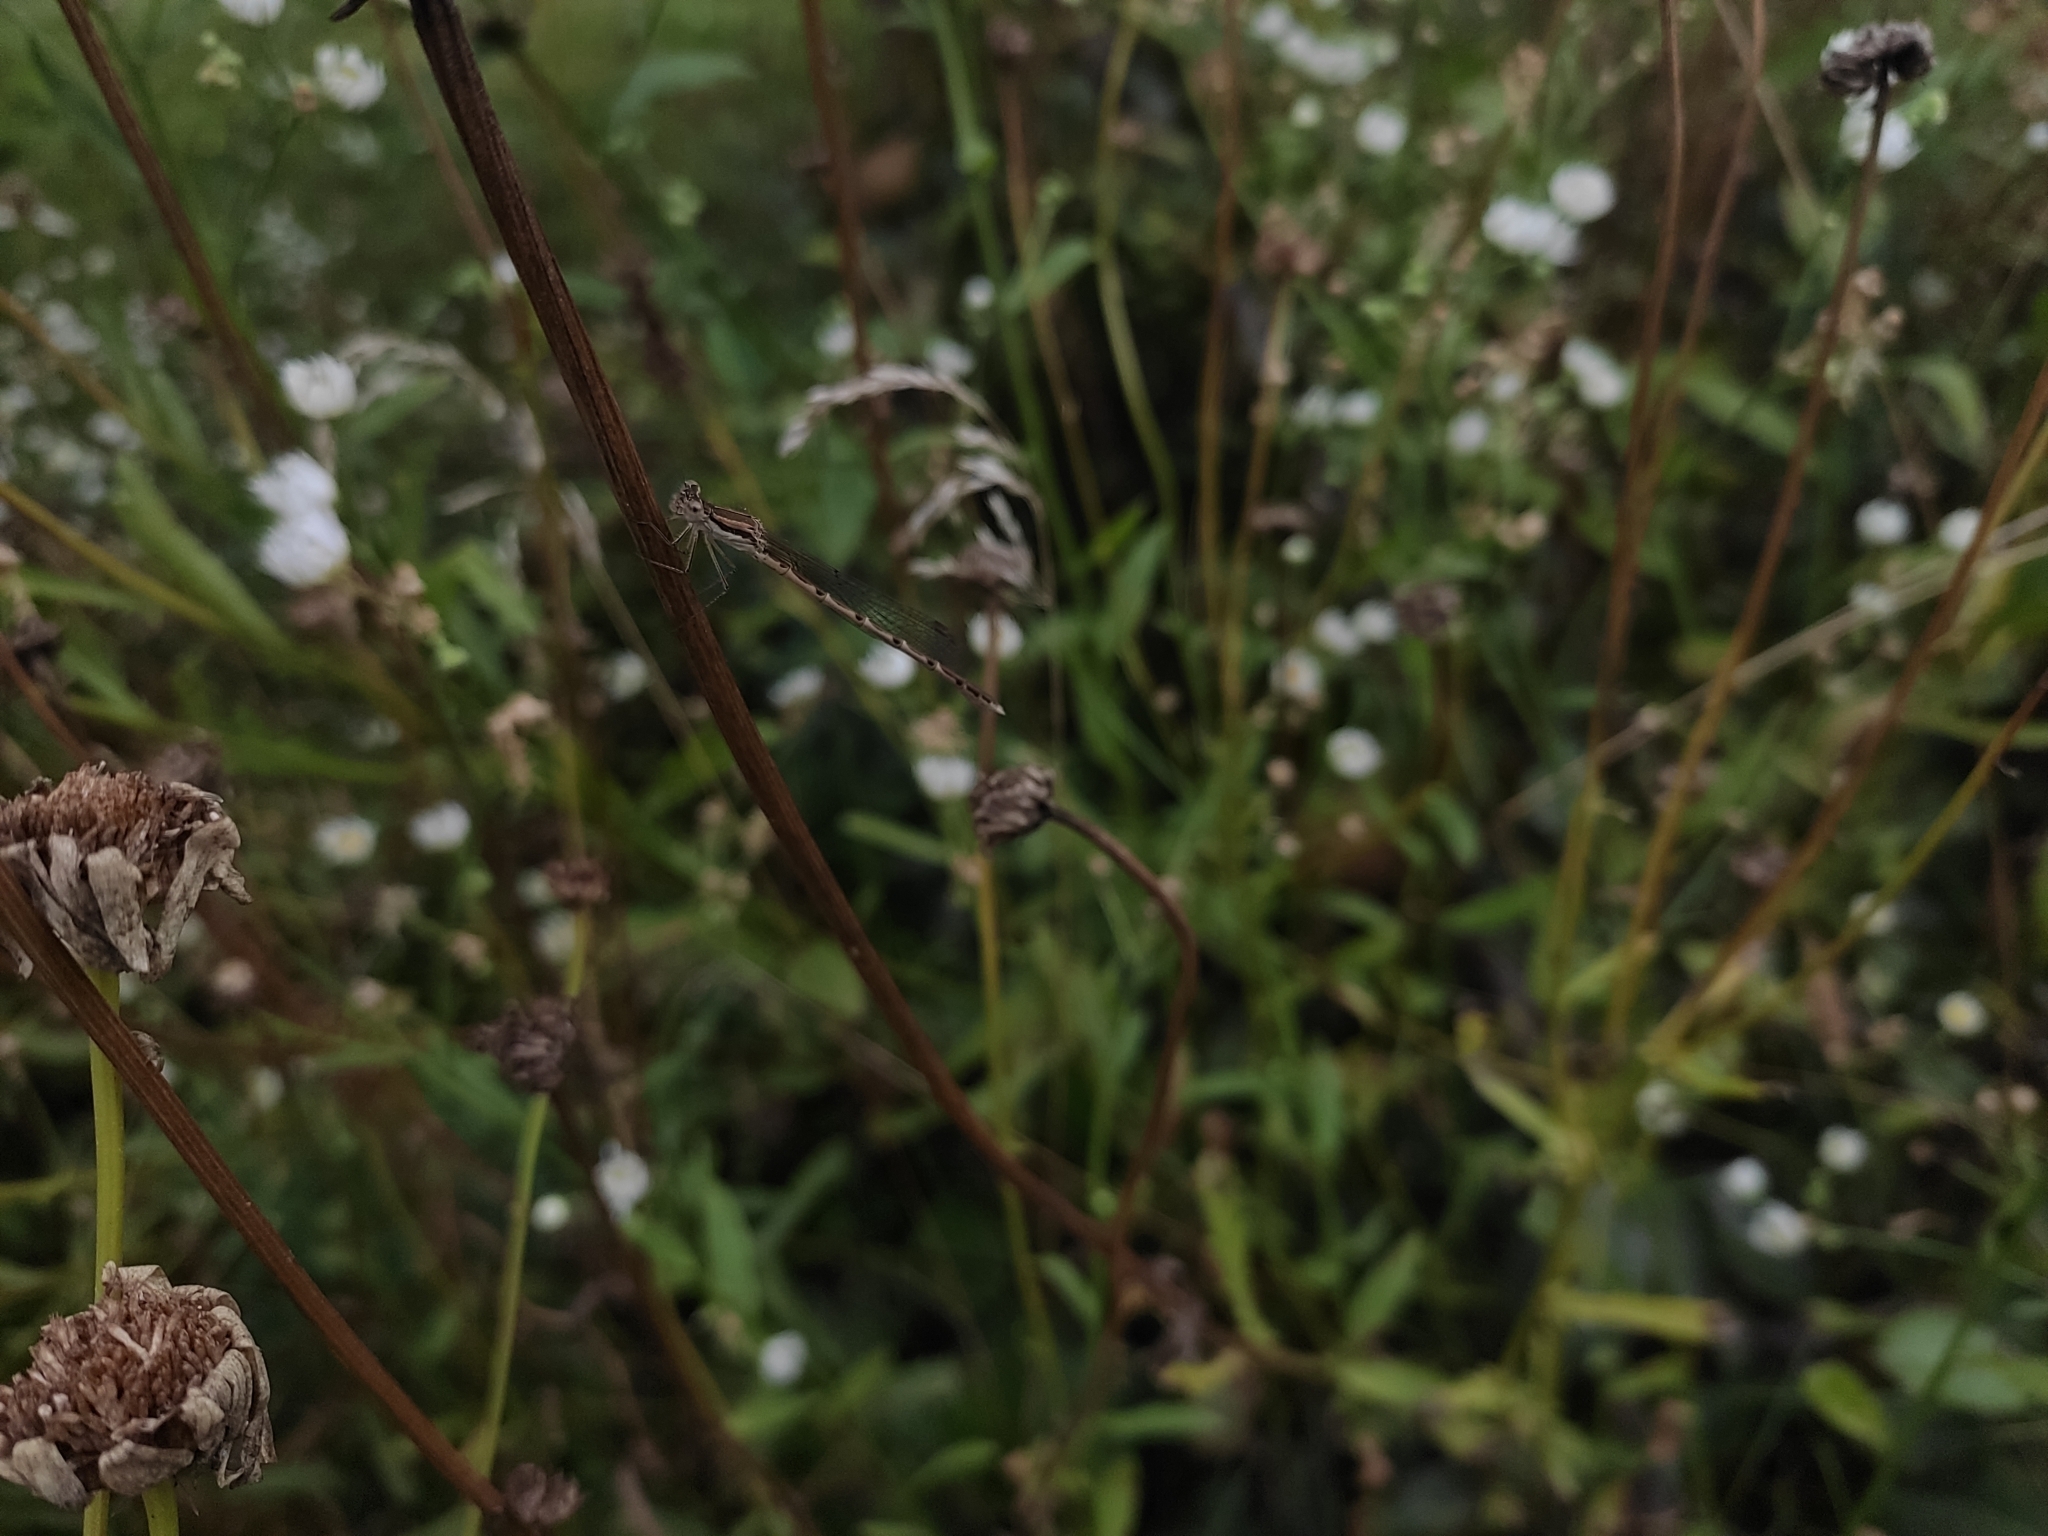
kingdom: Animalia
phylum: Arthropoda
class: Insecta
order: Odonata
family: Lestidae
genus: Sympecma
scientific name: Sympecma fusca
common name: Common winter damsel
